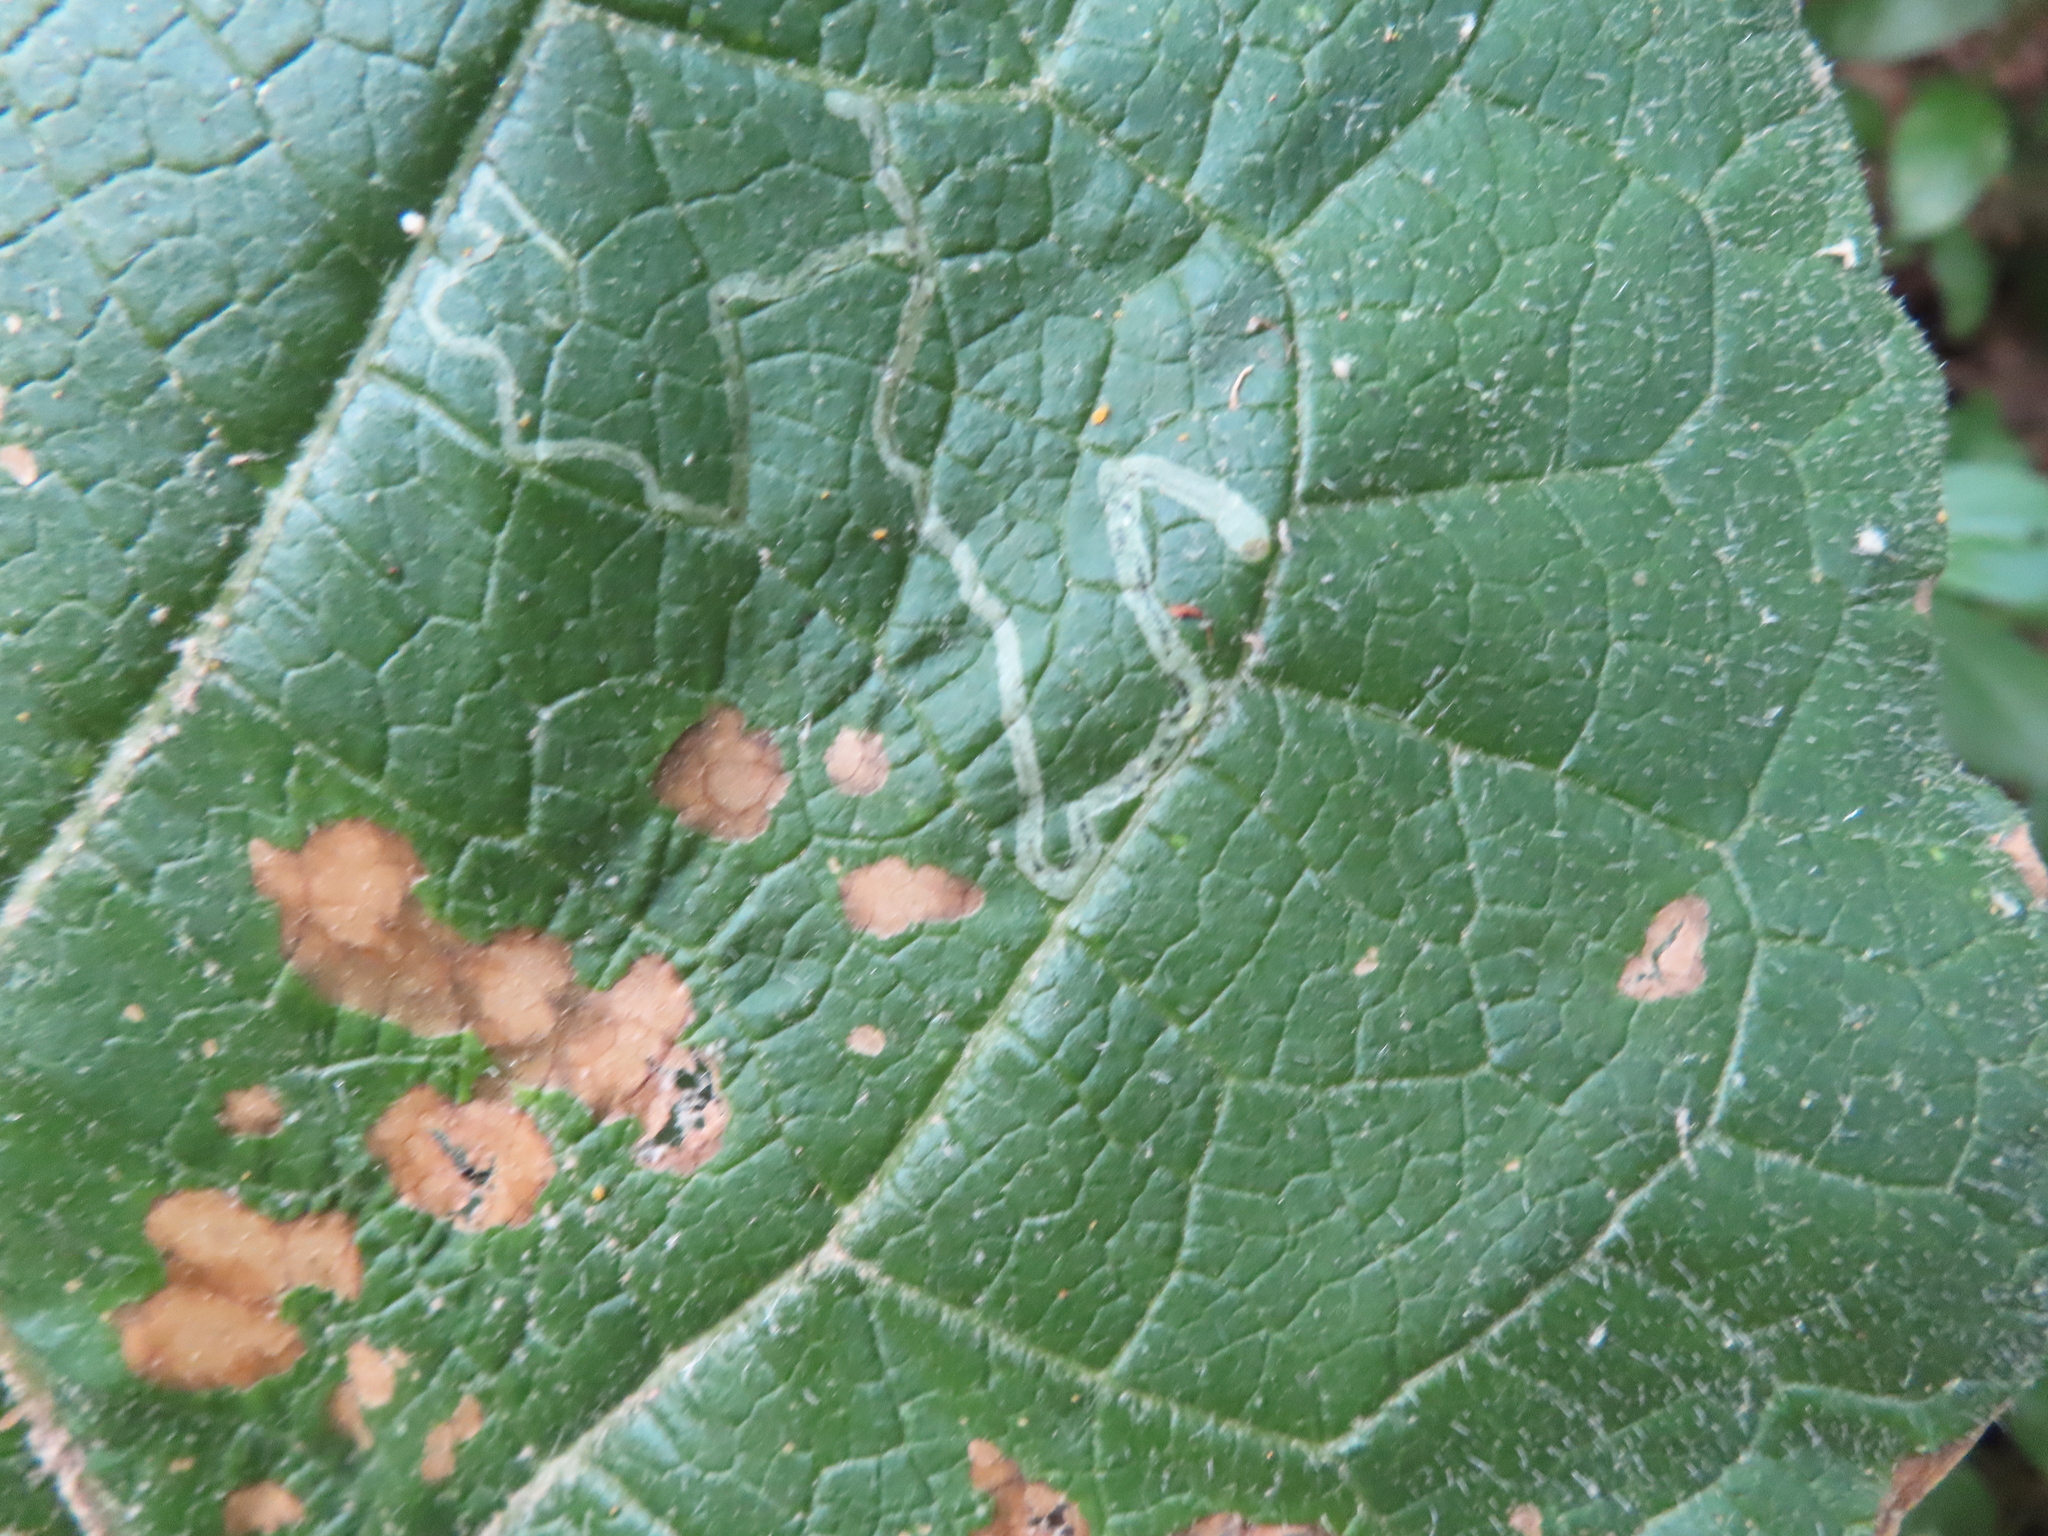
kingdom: Animalia
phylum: Arthropoda
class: Insecta
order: Diptera
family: Agromyzidae
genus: Liriomyza
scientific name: Liriomyza arctii
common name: Burdock leafminer
